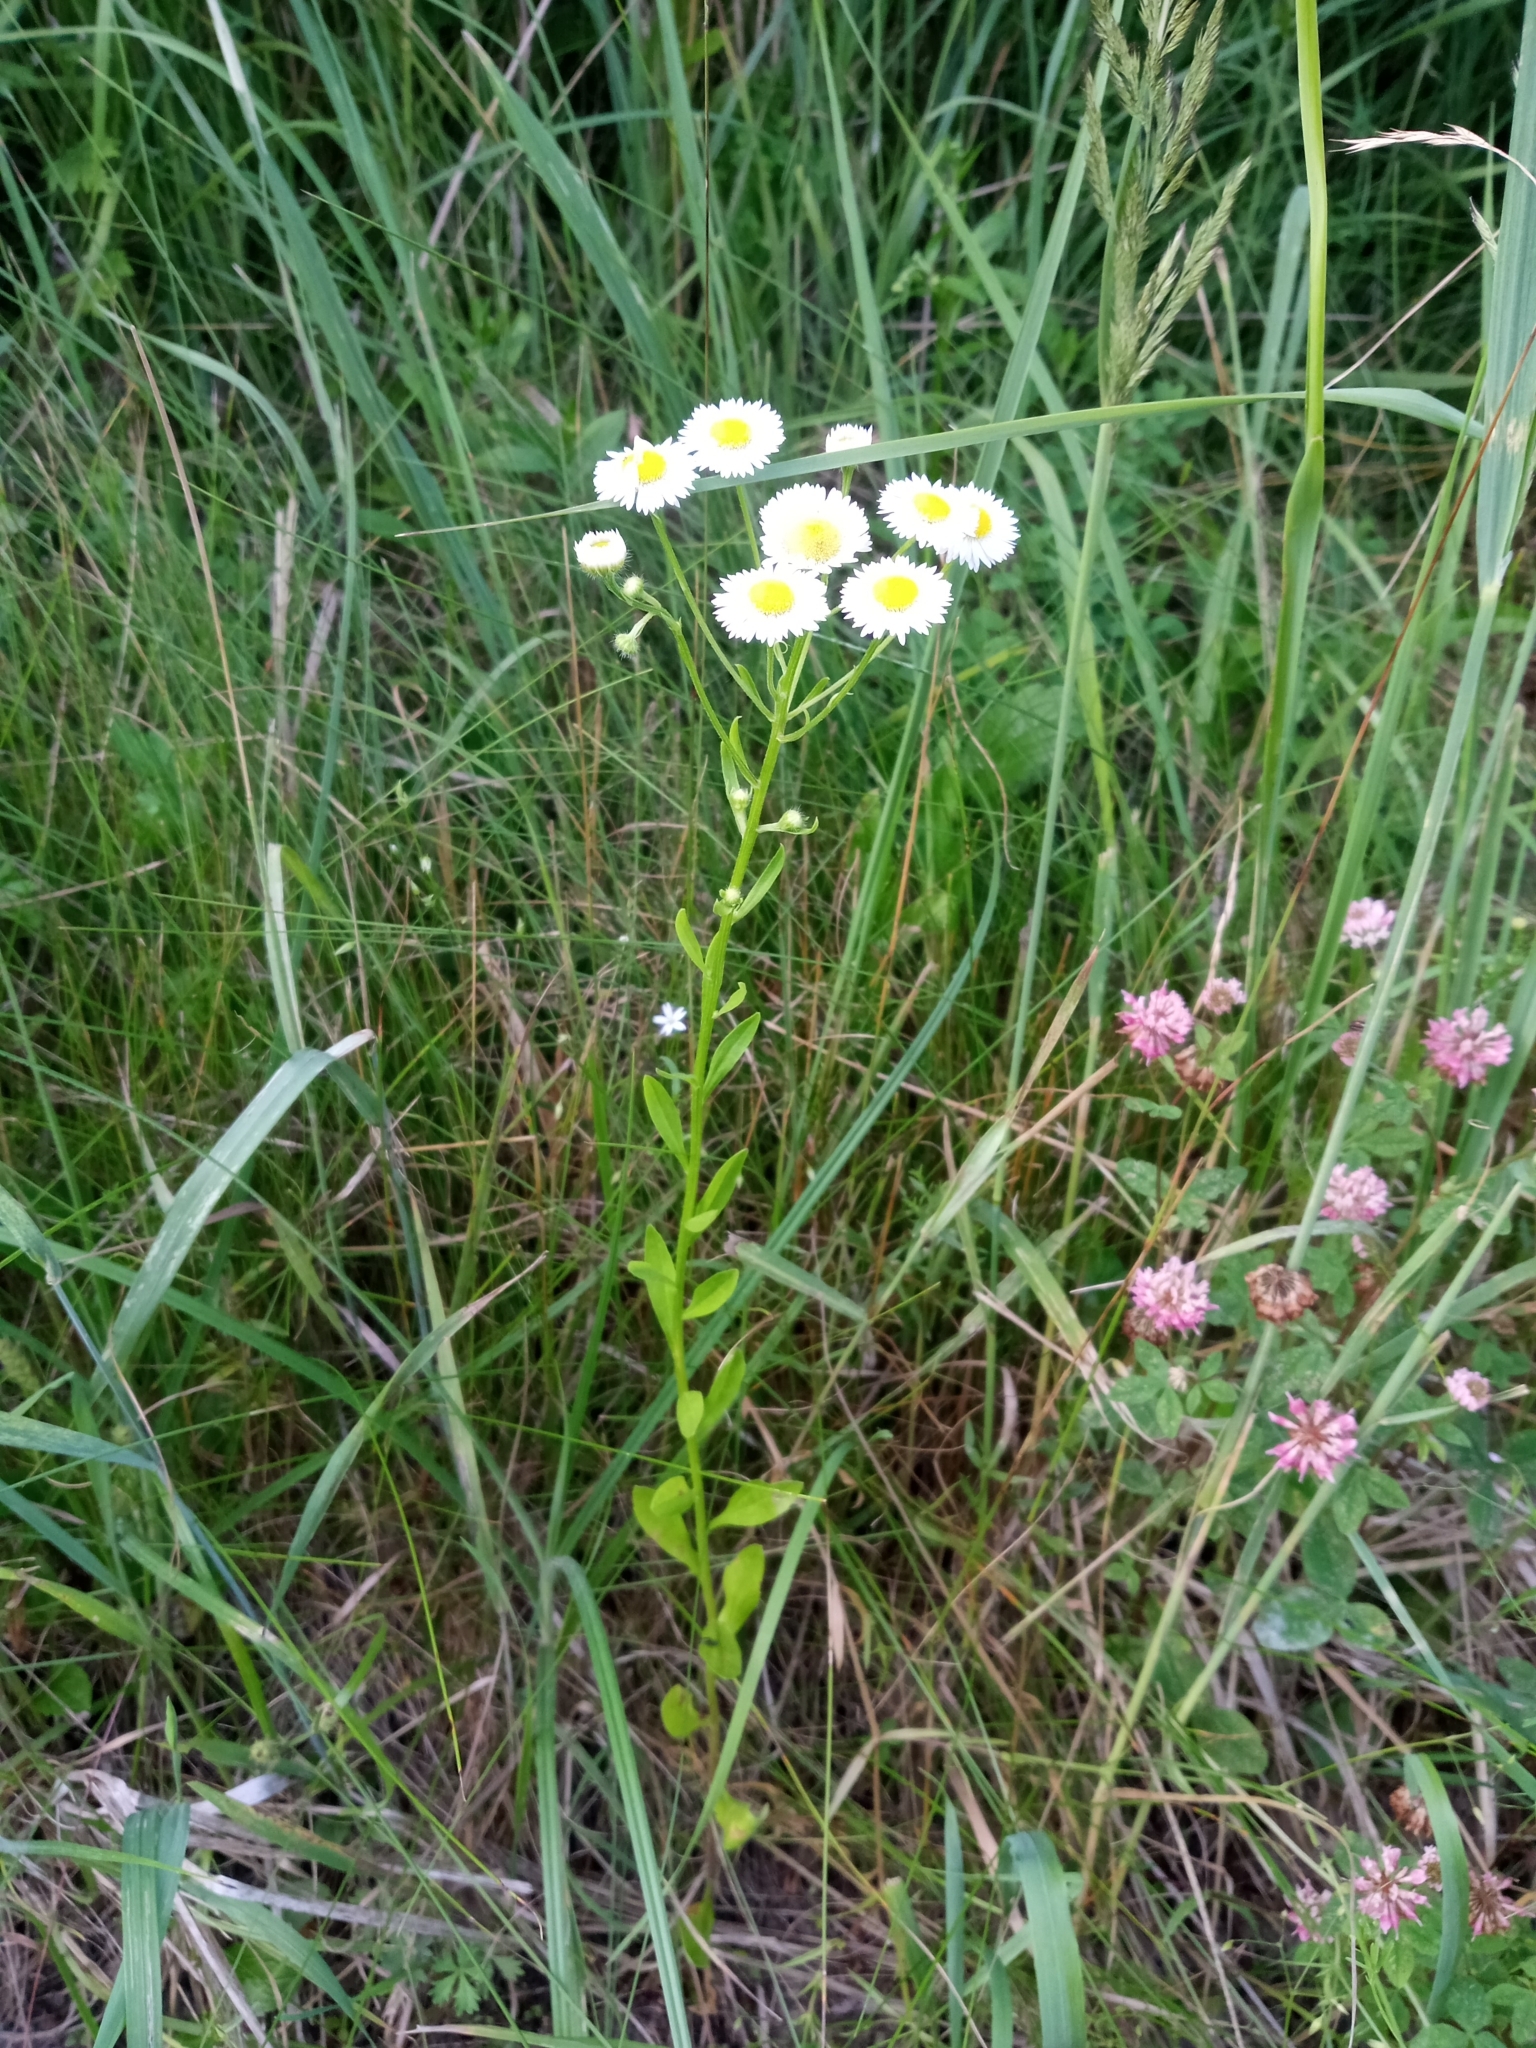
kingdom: Plantae
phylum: Tracheophyta
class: Magnoliopsida
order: Asterales
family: Asteraceae
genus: Erigeron
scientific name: Erigeron strigosus
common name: Common eastern fleabane
